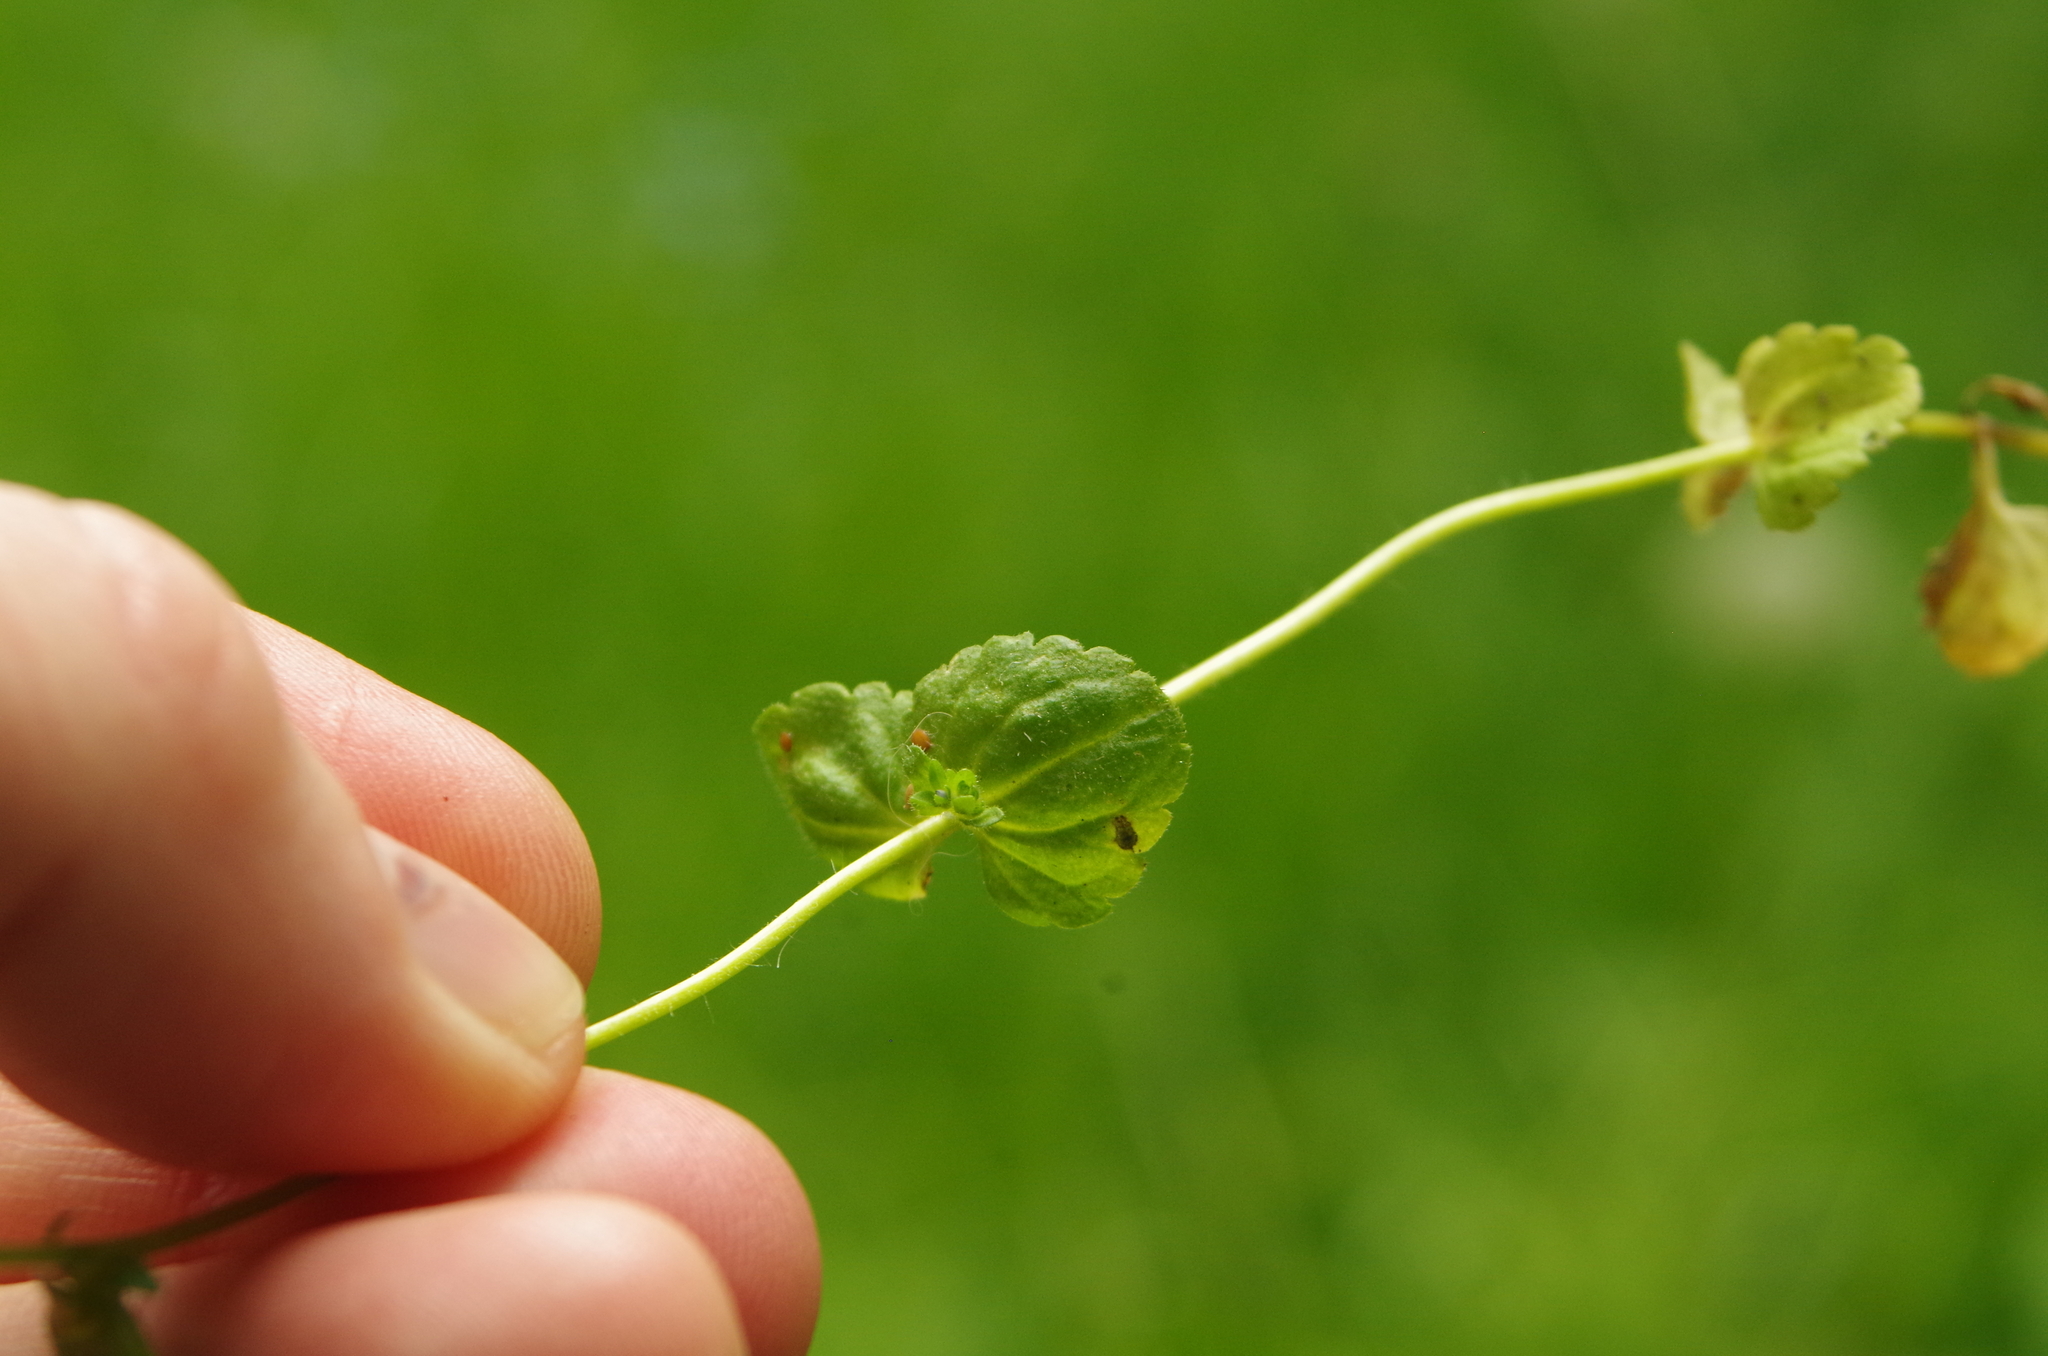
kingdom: Plantae
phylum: Tracheophyta
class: Magnoliopsida
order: Lamiales
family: Plantaginaceae
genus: Veronica
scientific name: Veronica arvensis
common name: Corn speedwell
